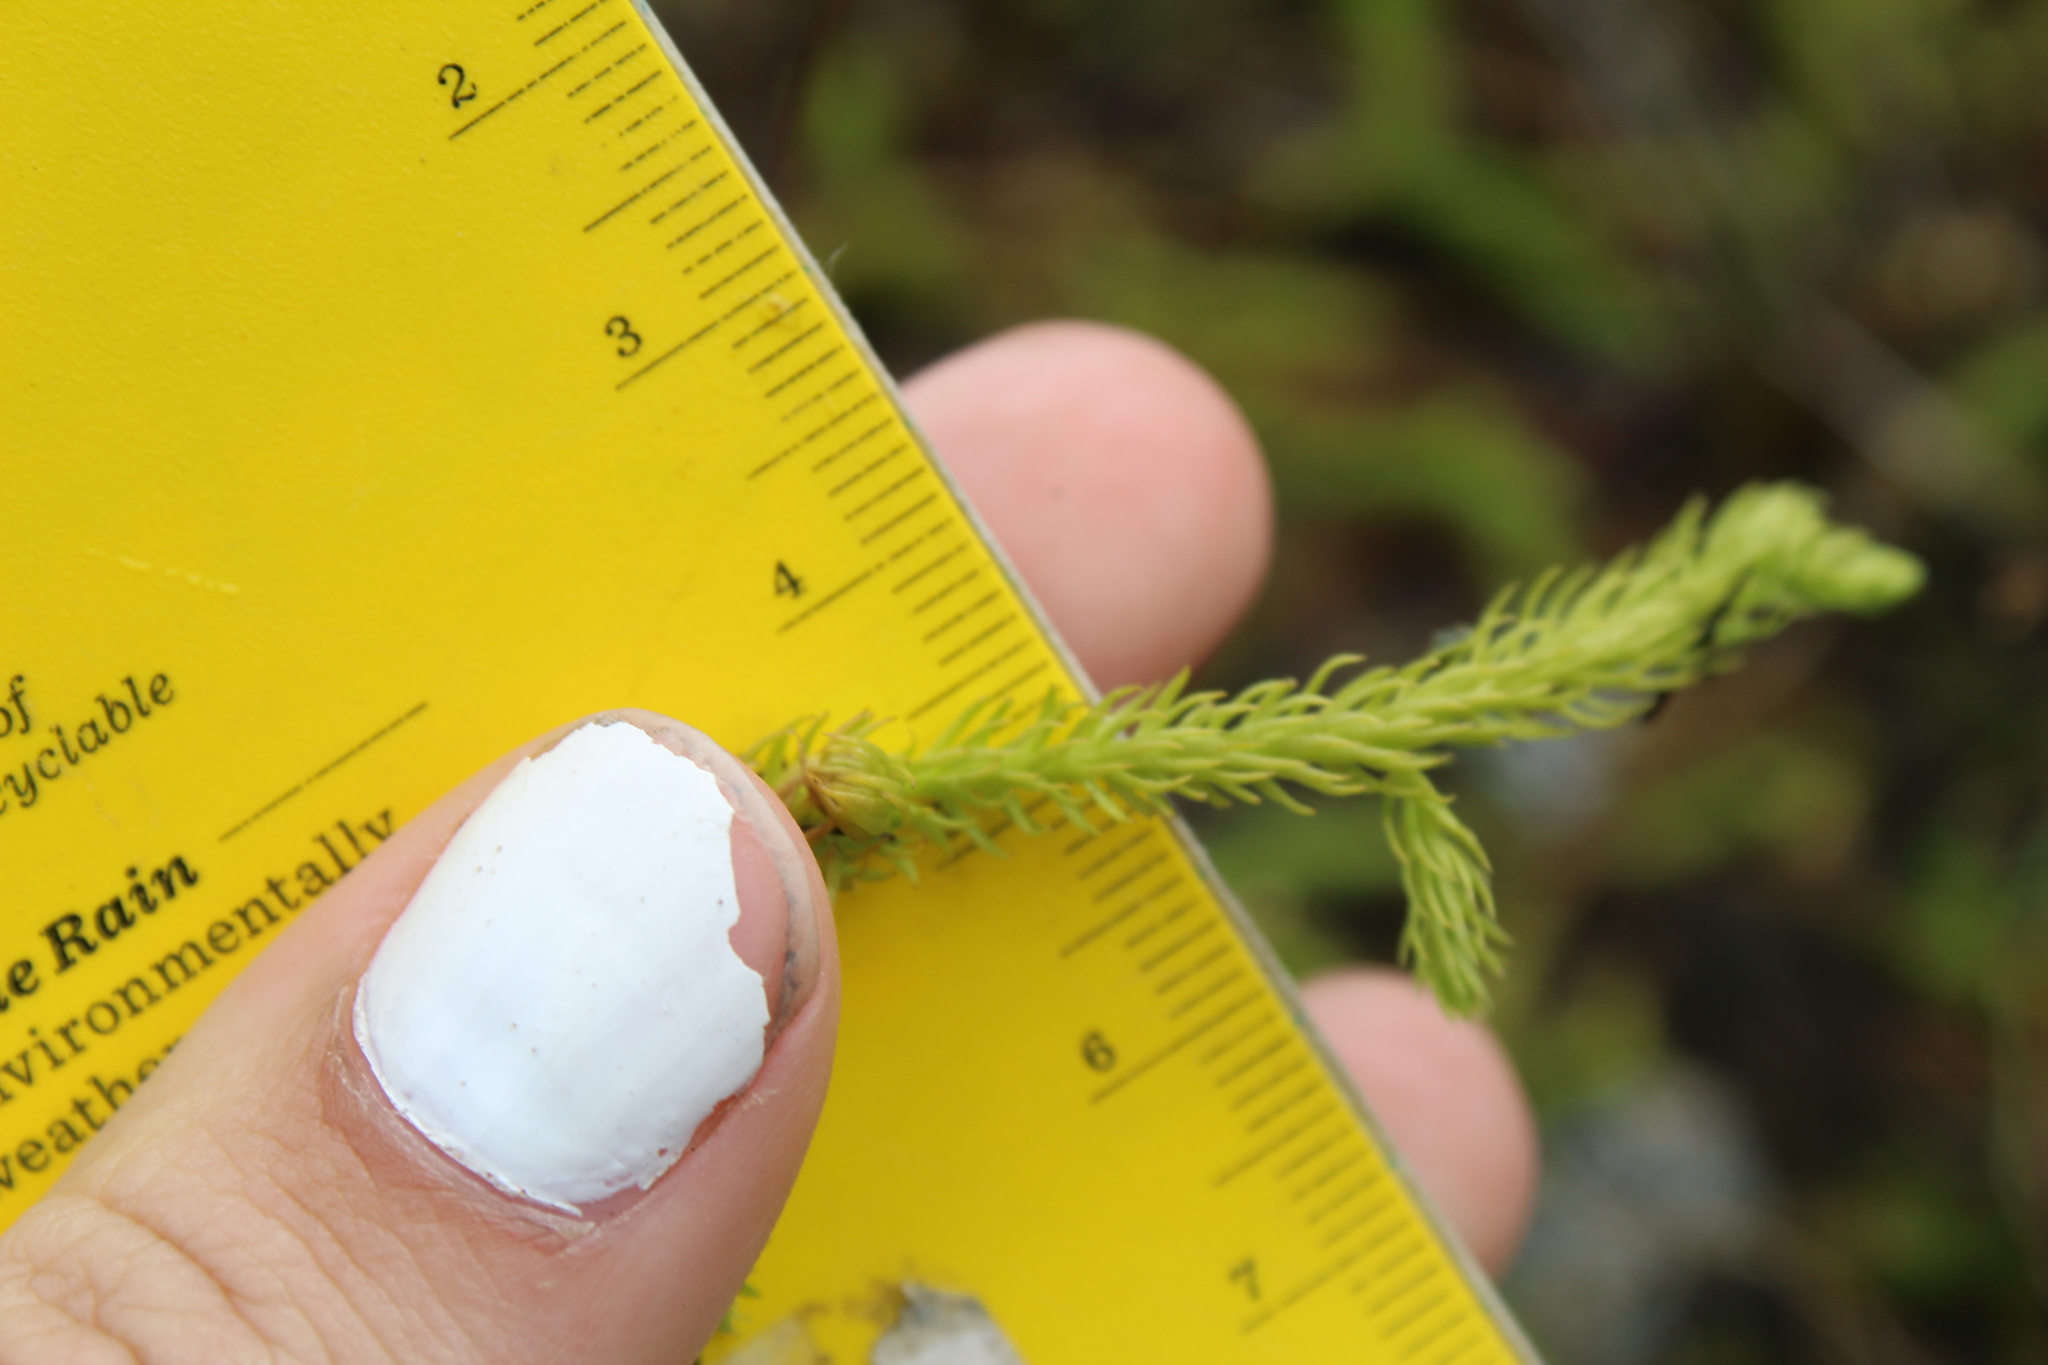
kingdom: Plantae
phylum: Tracheophyta
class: Lycopodiopsida
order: Lycopodiales
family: Lycopodiaceae
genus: Lycopodiella
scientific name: Lycopodiella inundata
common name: Marsh clubmoss
